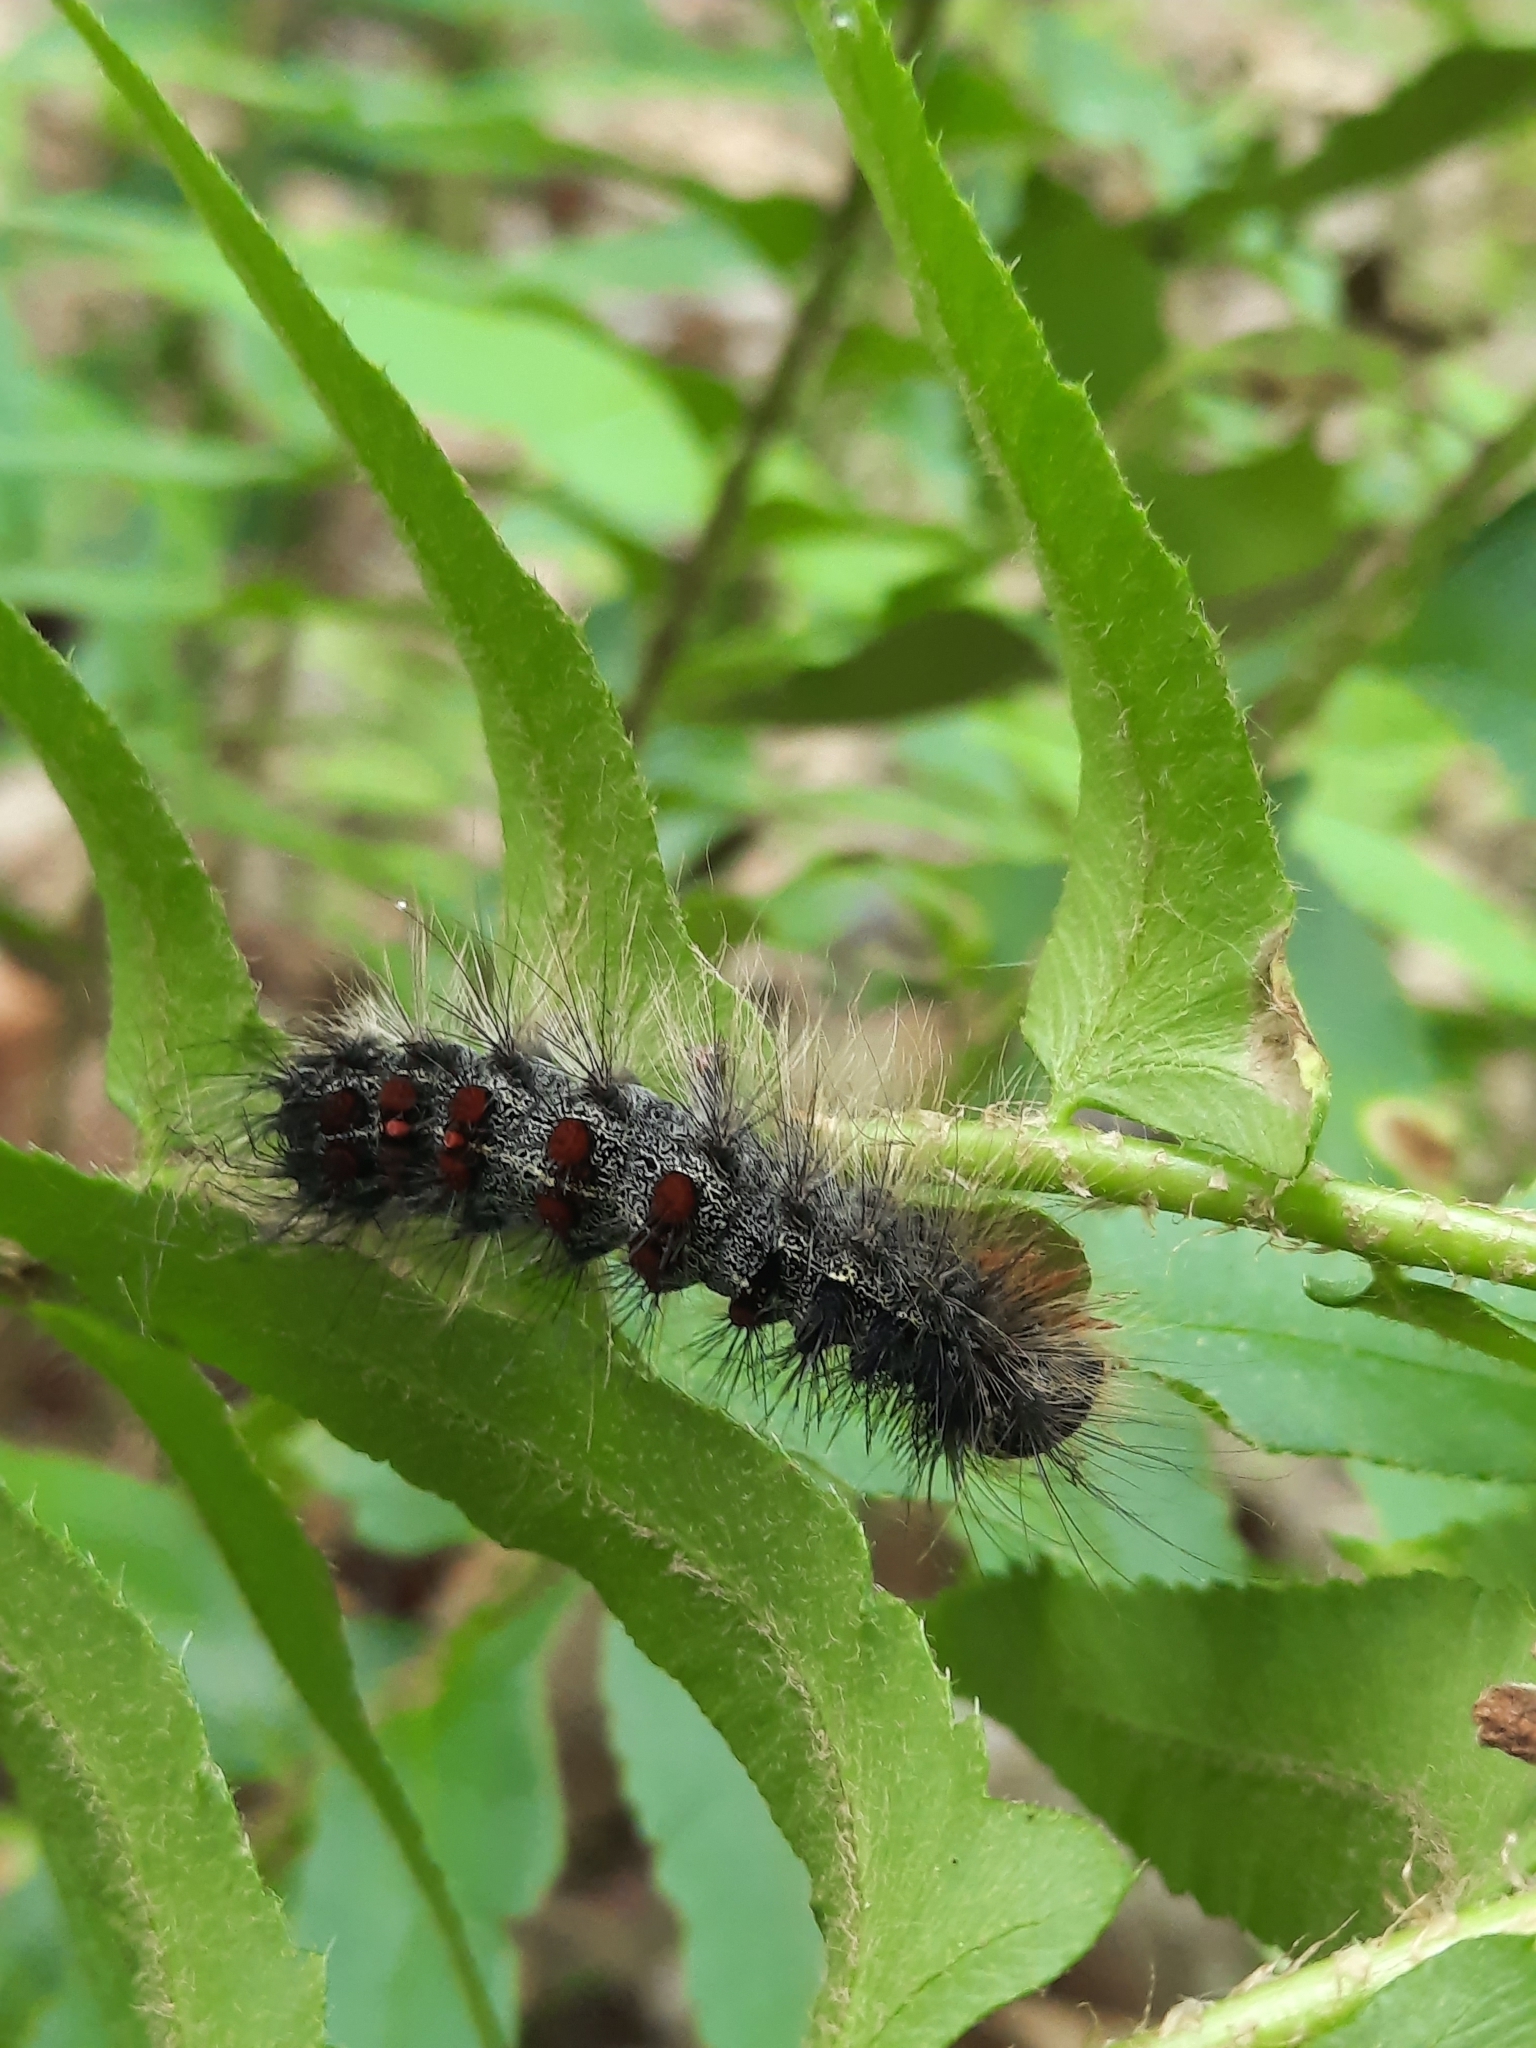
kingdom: Animalia
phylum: Arthropoda
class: Insecta
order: Lepidoptera
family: Erebidae
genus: Lymantria
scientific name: Lymantria dispar
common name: Gypsy moth
